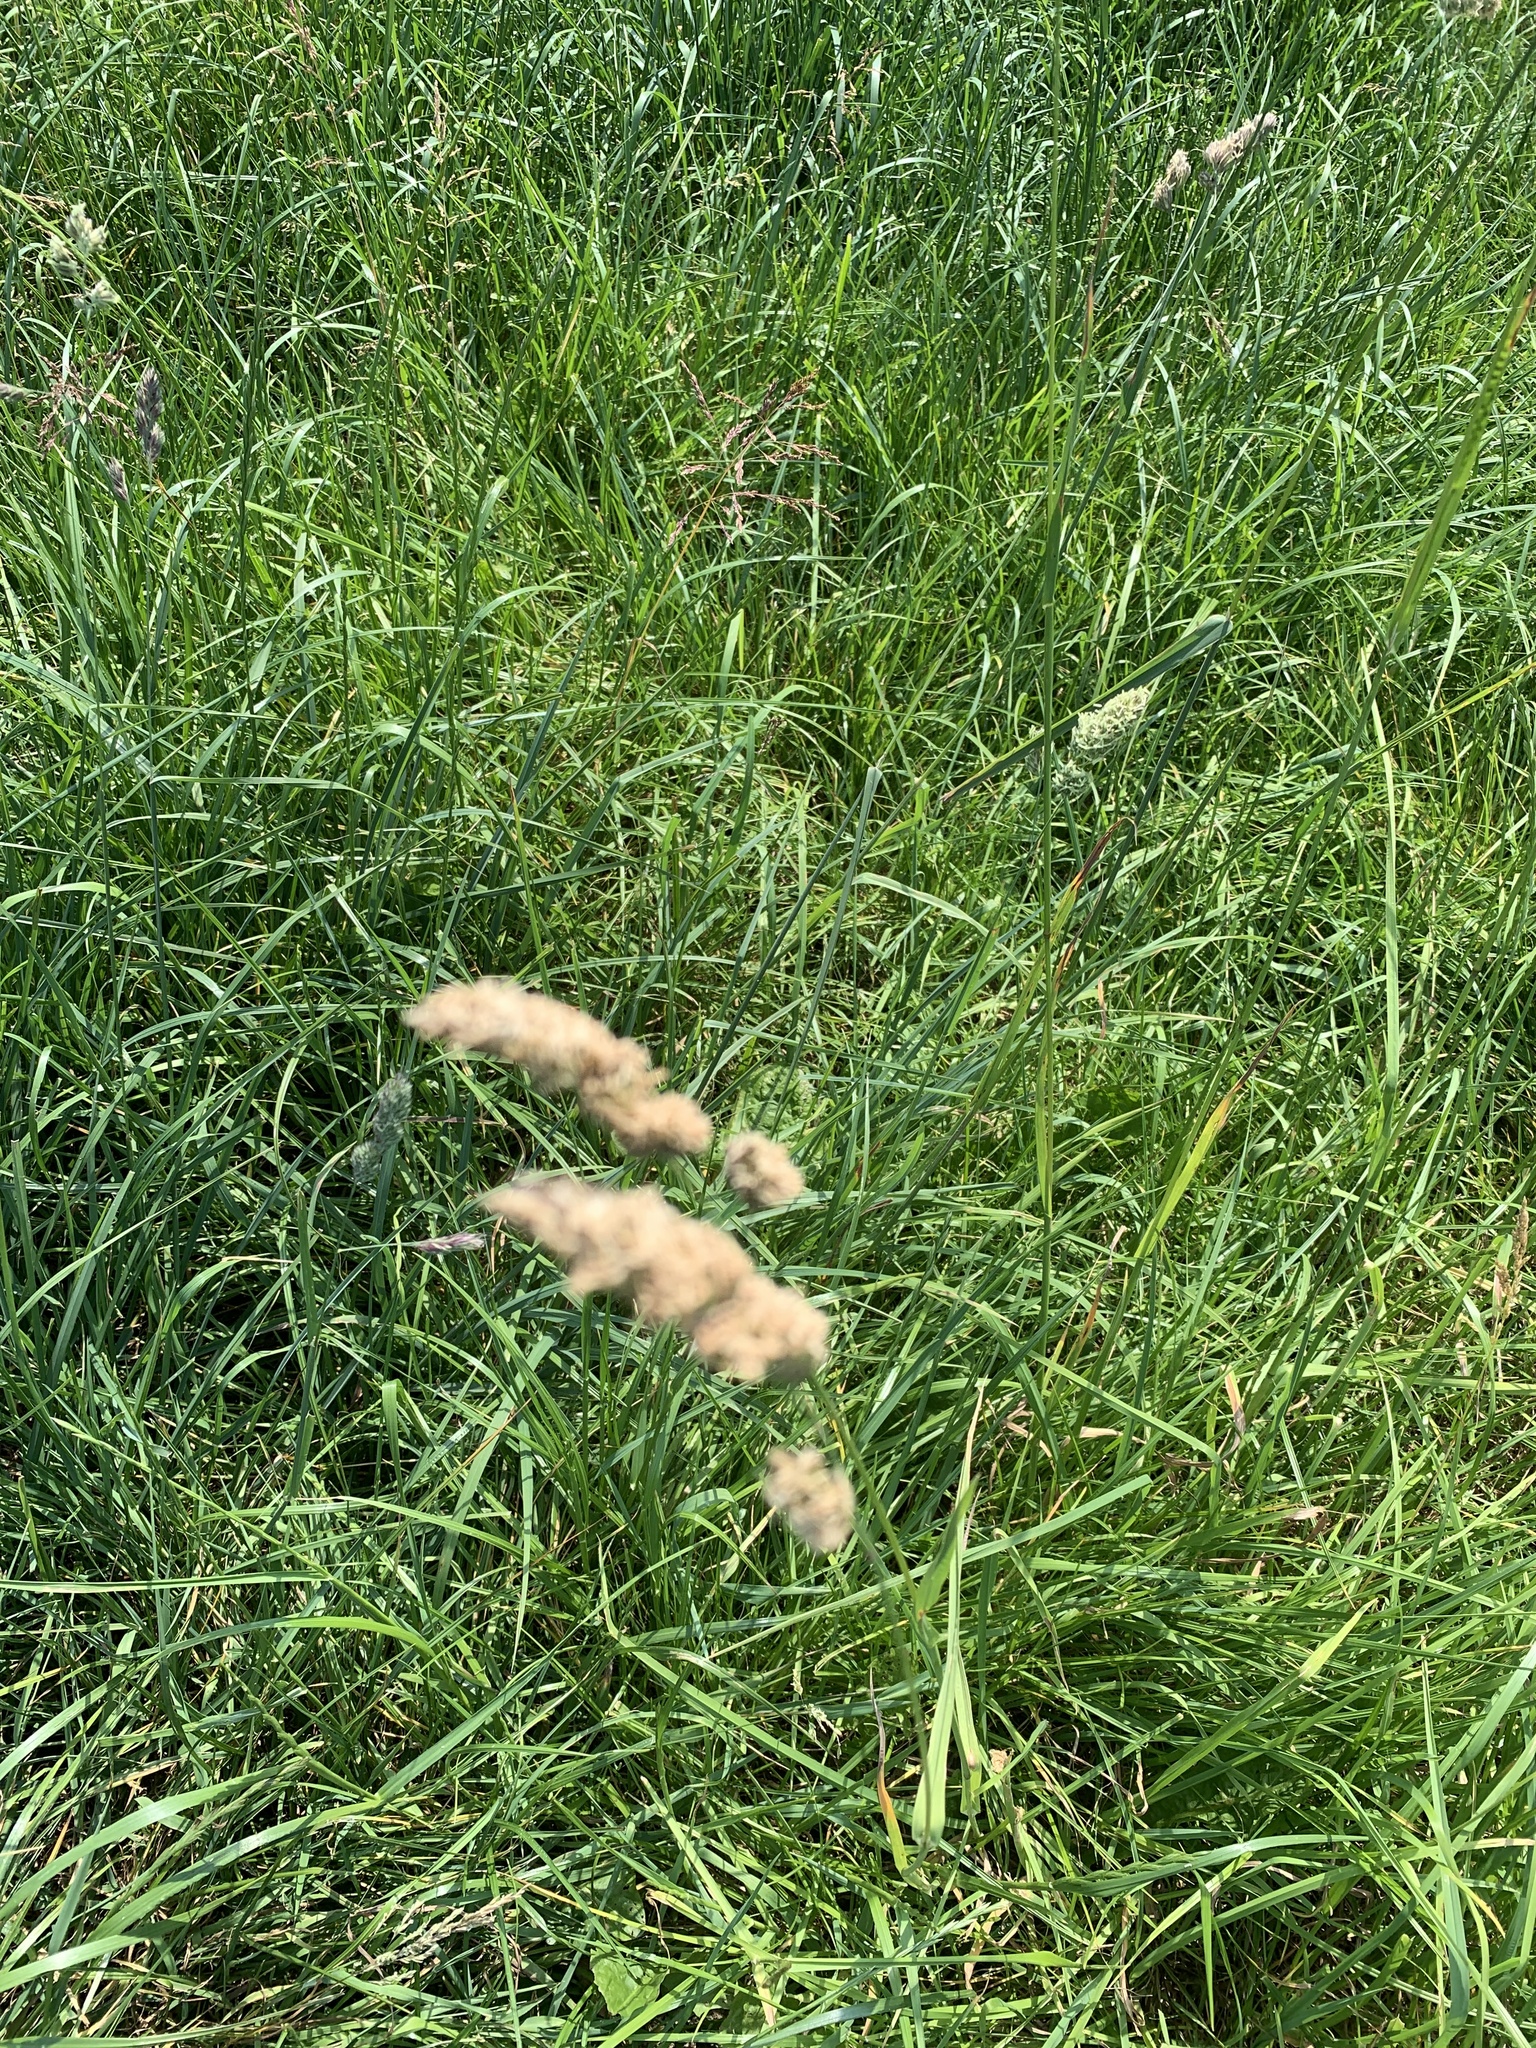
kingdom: Plantae
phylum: Tracheophyta
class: Liliopsida
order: Poales
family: Poaceae
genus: Dactylis
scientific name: Dactylis glomerata
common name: Orchardgrass
